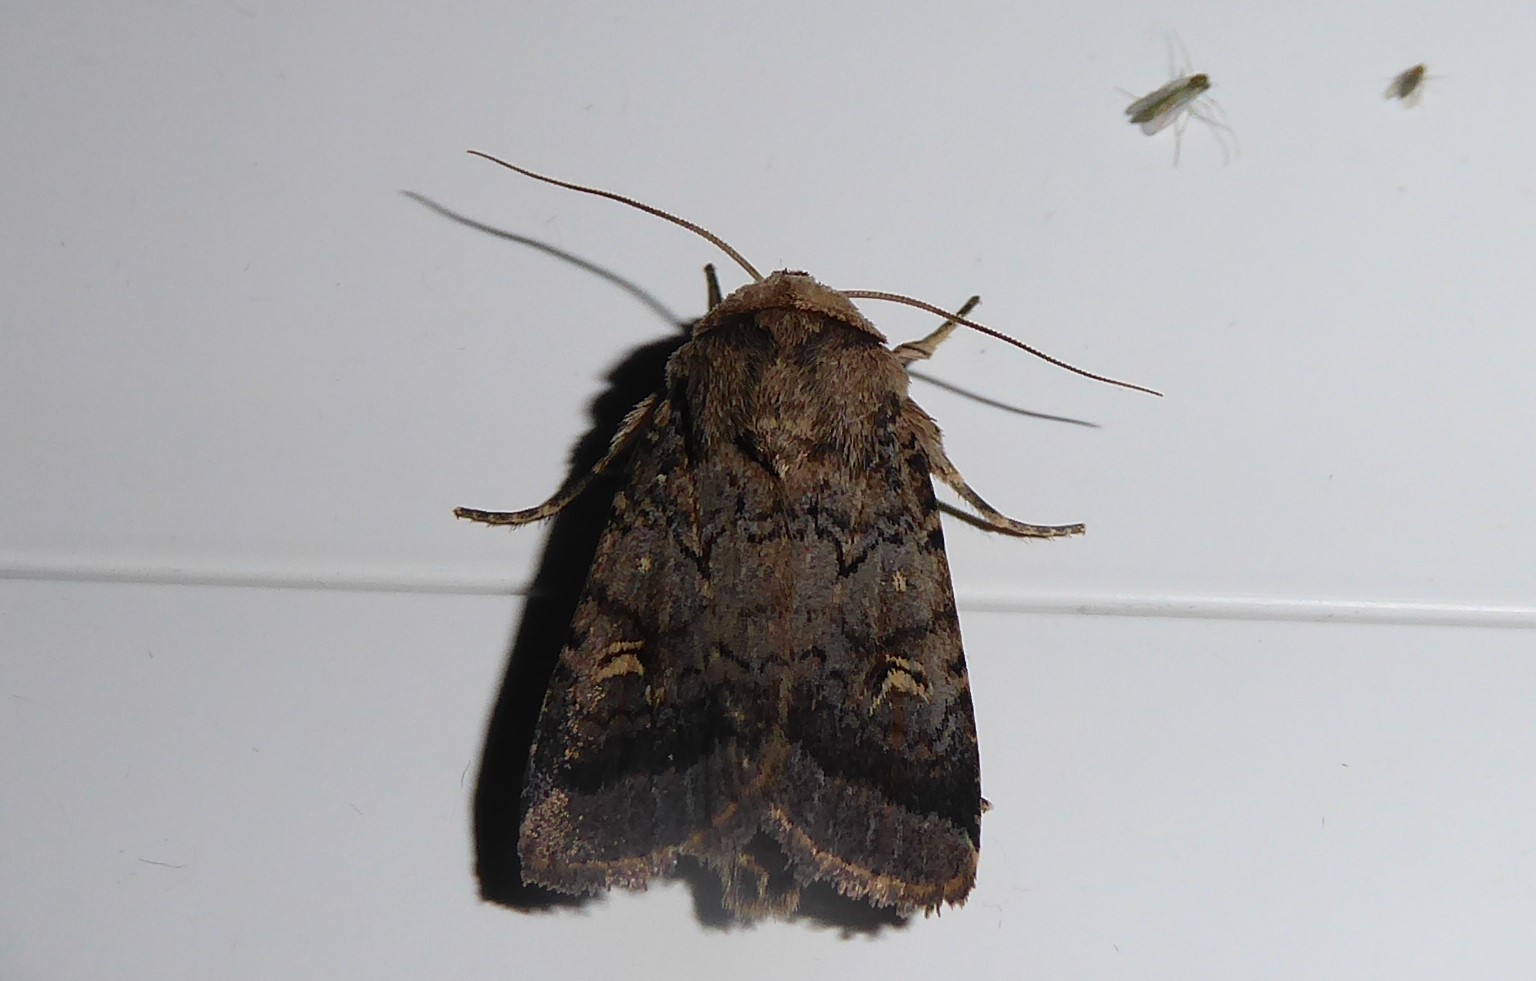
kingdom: Animalia
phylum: Arthropoda
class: Insecta
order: Lepidoptera
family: Noctuidae
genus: Proteuxoa
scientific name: Proteuxoa tetronycha
